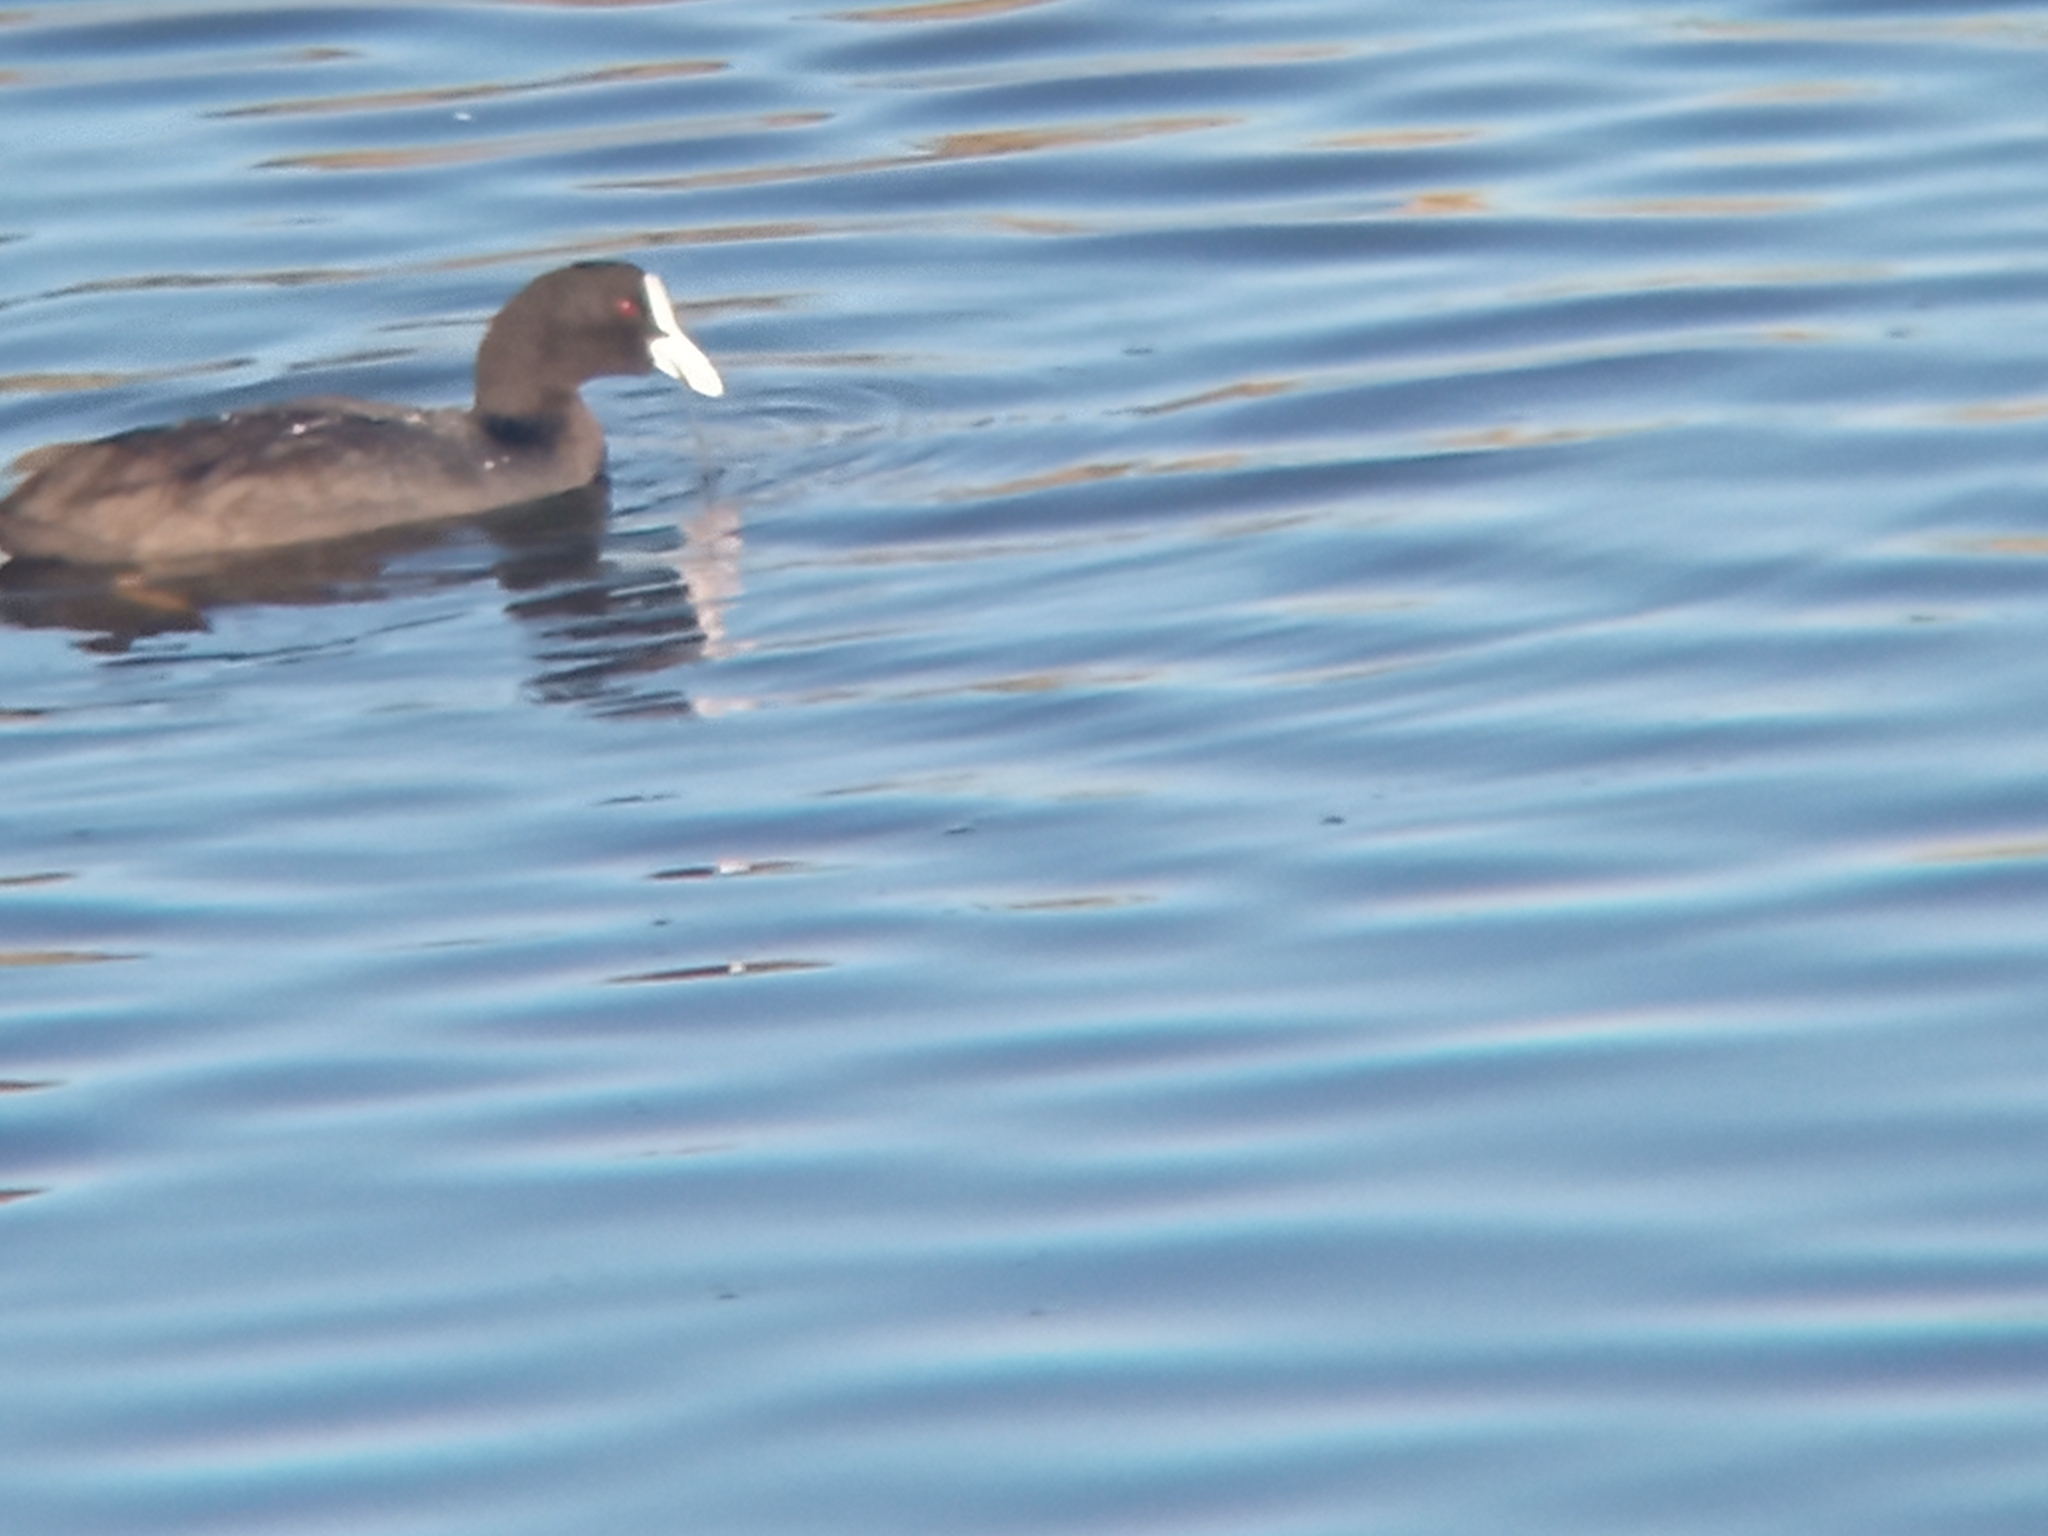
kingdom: Animalia
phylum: Chordata
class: Aves
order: Gruiformes
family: Rallidae
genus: Fulica
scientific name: Fulica atra
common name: Eurasian coot
